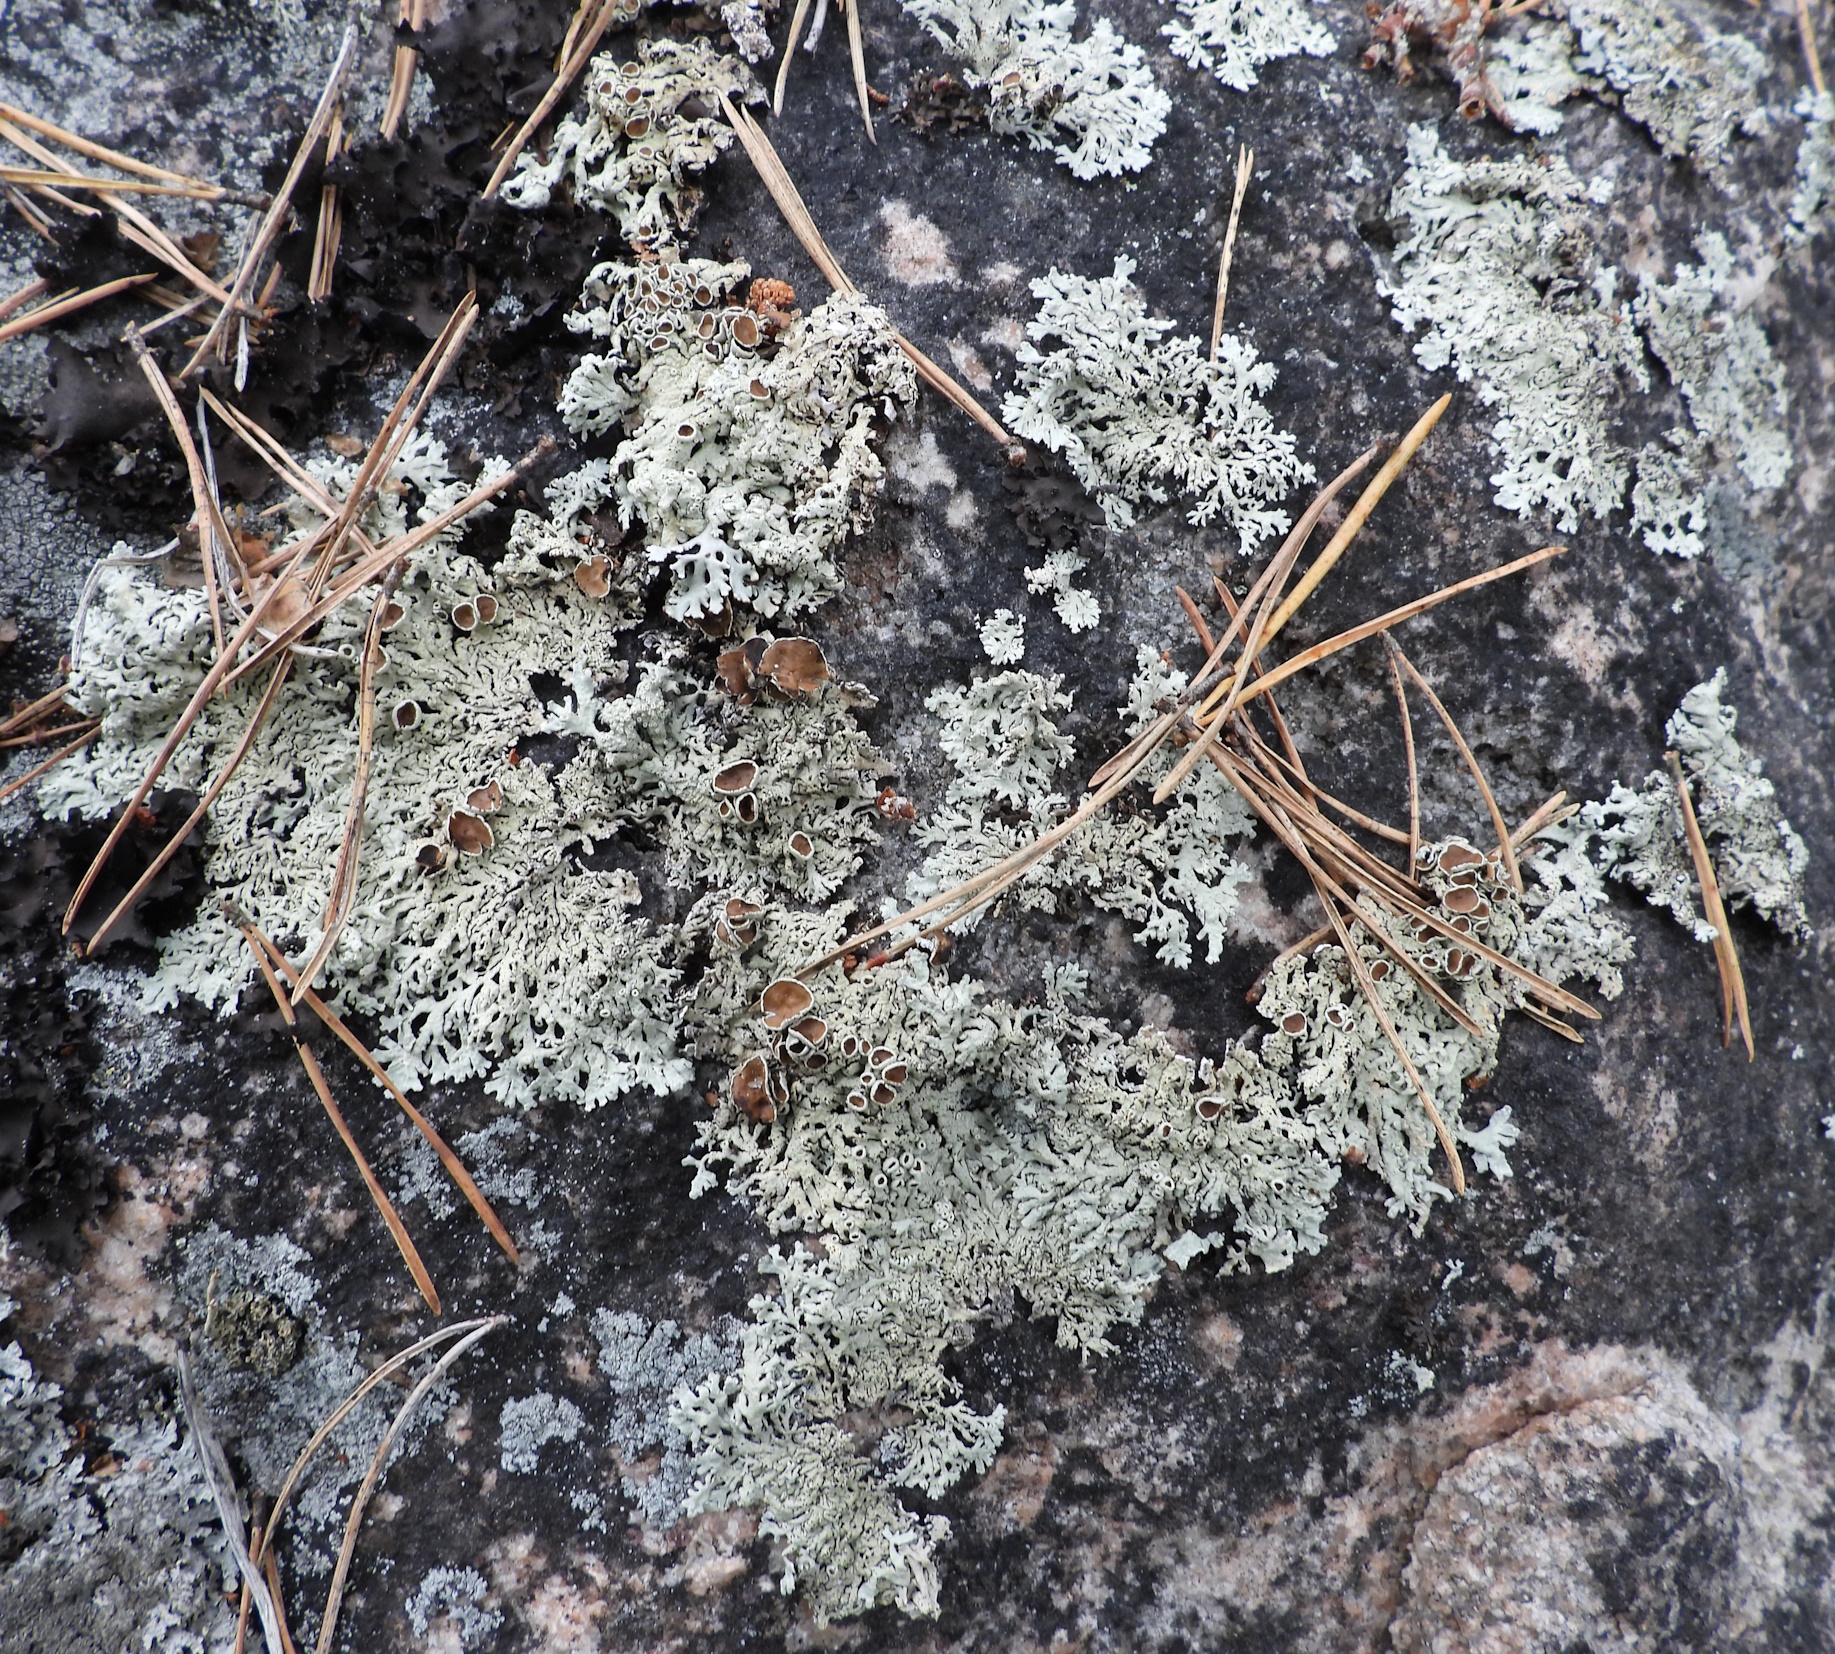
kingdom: Fungi
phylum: Ascomycota
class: Lecanoromycetes
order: Lecanorales
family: Parmeliaceae
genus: Arctoparmelia
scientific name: Arctoparmelia centrifuga
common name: Concentric ring lichen
